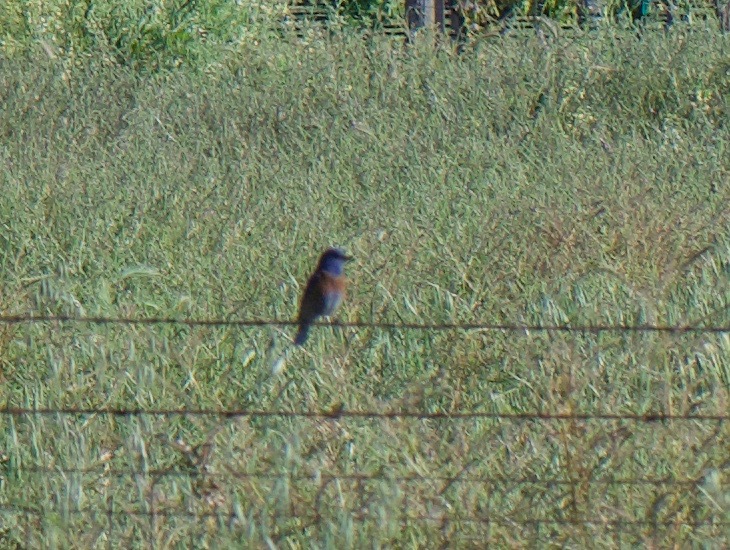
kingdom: Animalia
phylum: Chordata
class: Aves
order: Passeriformes
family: Turdidae
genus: Sialia
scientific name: Sialia mexicana
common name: Western bluebird
